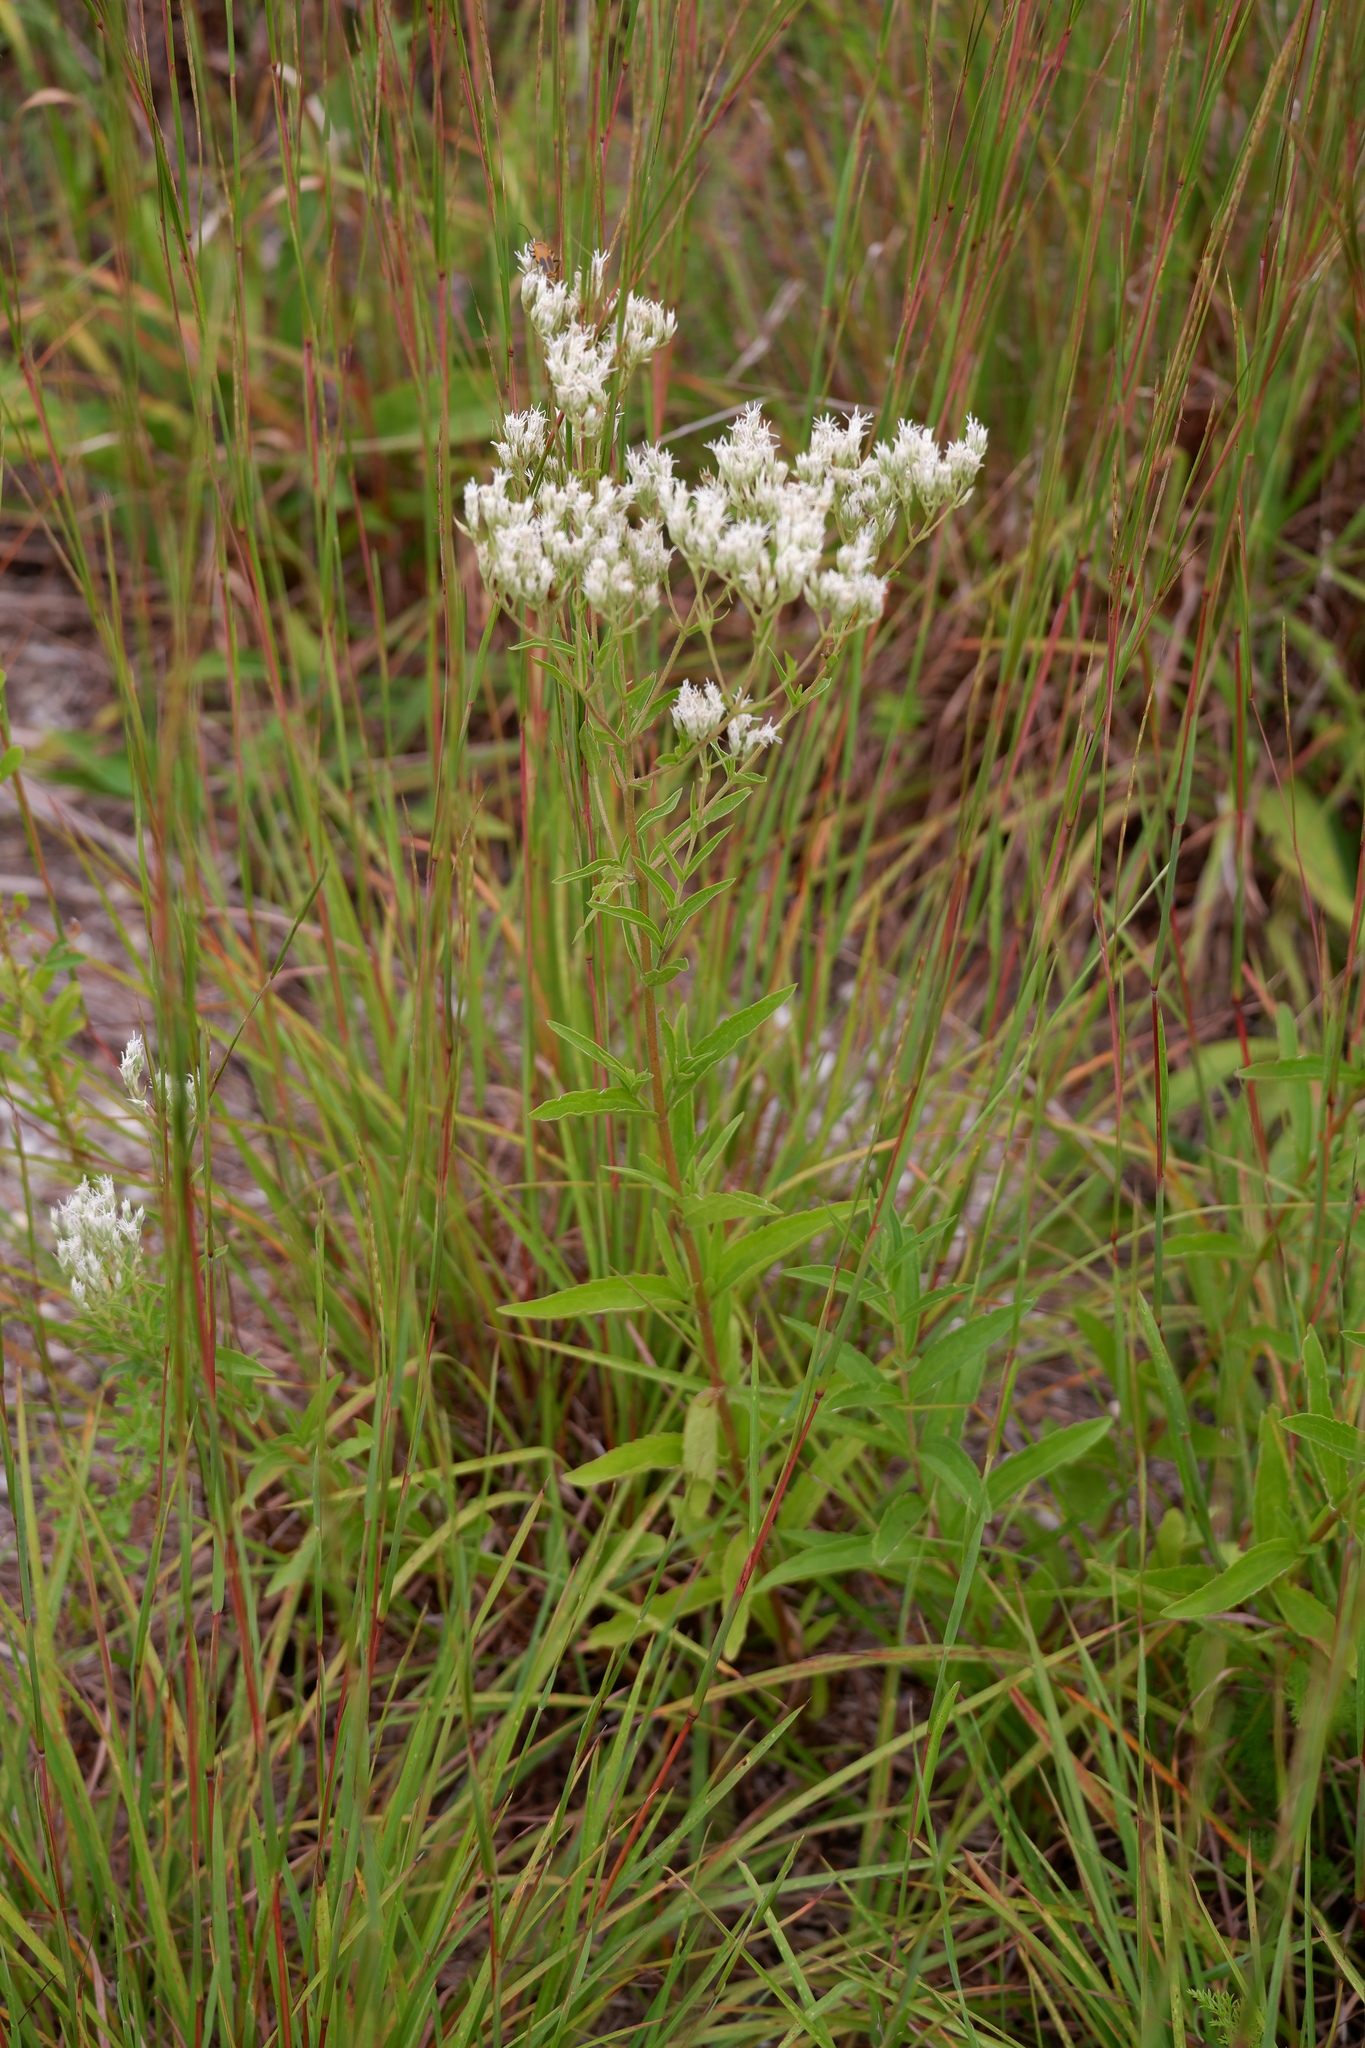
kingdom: Plantae
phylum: Tracheophyta
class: Magnoliopsida
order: Asterales
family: Asteraceae
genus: Eupatorium
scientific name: Eupatorium album
